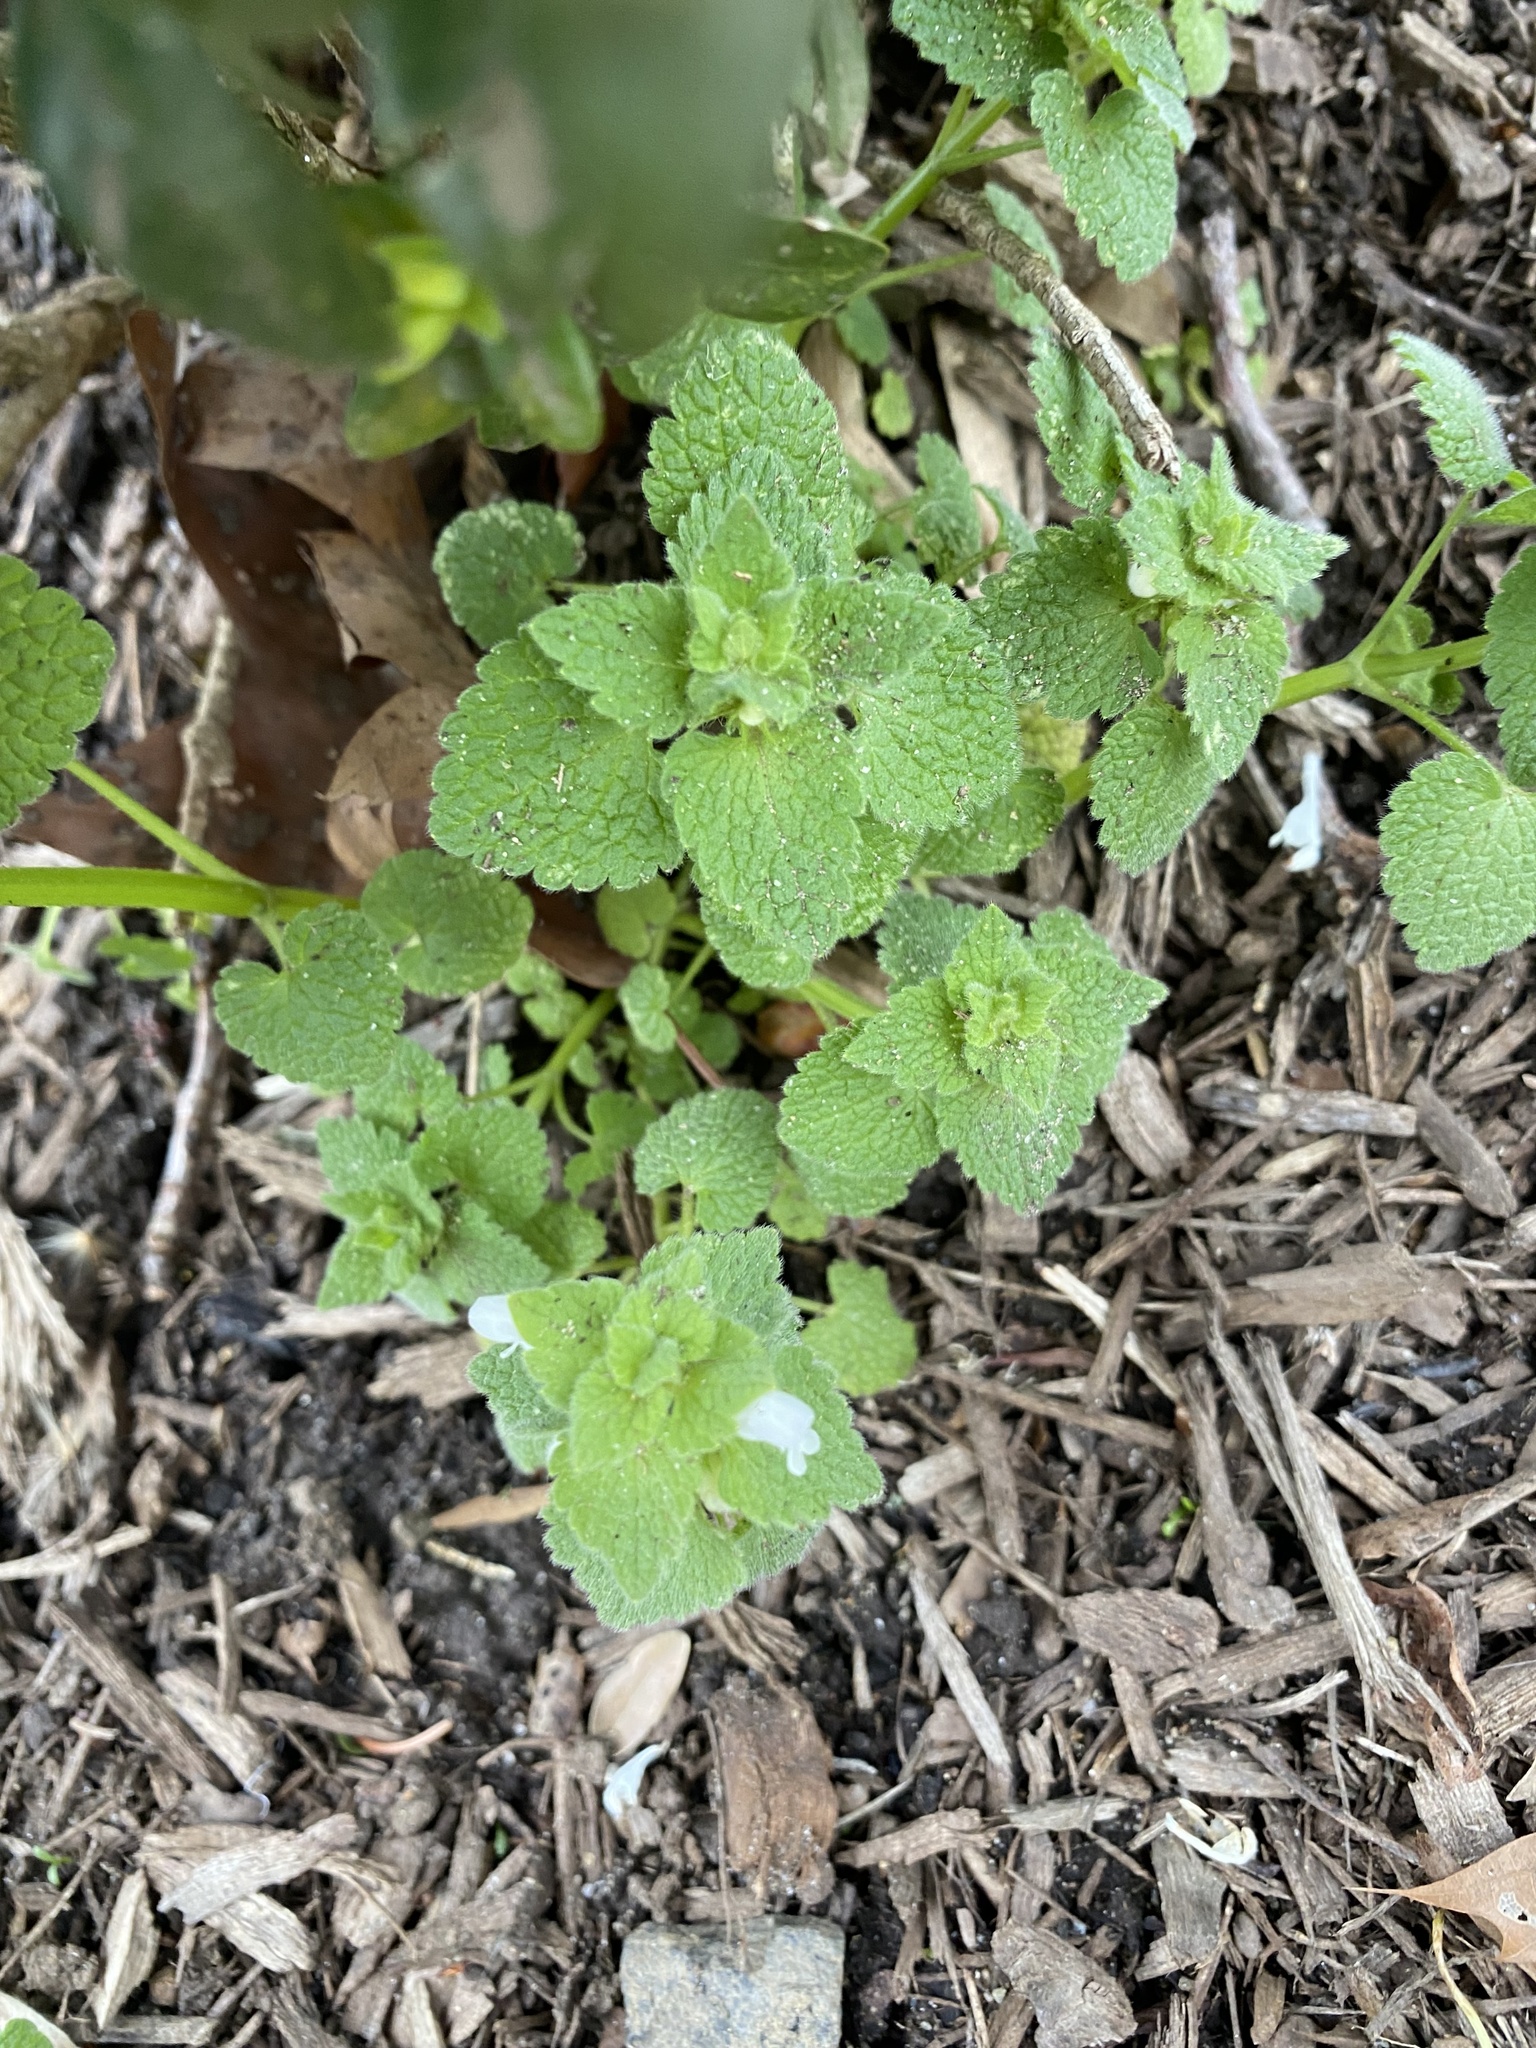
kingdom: Plantae
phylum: Tracheophyta
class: Magnoliopsida
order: Lamiales
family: Lamiaceae
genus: Lamium
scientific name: Lamium purpureum
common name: Red dead-nettle
